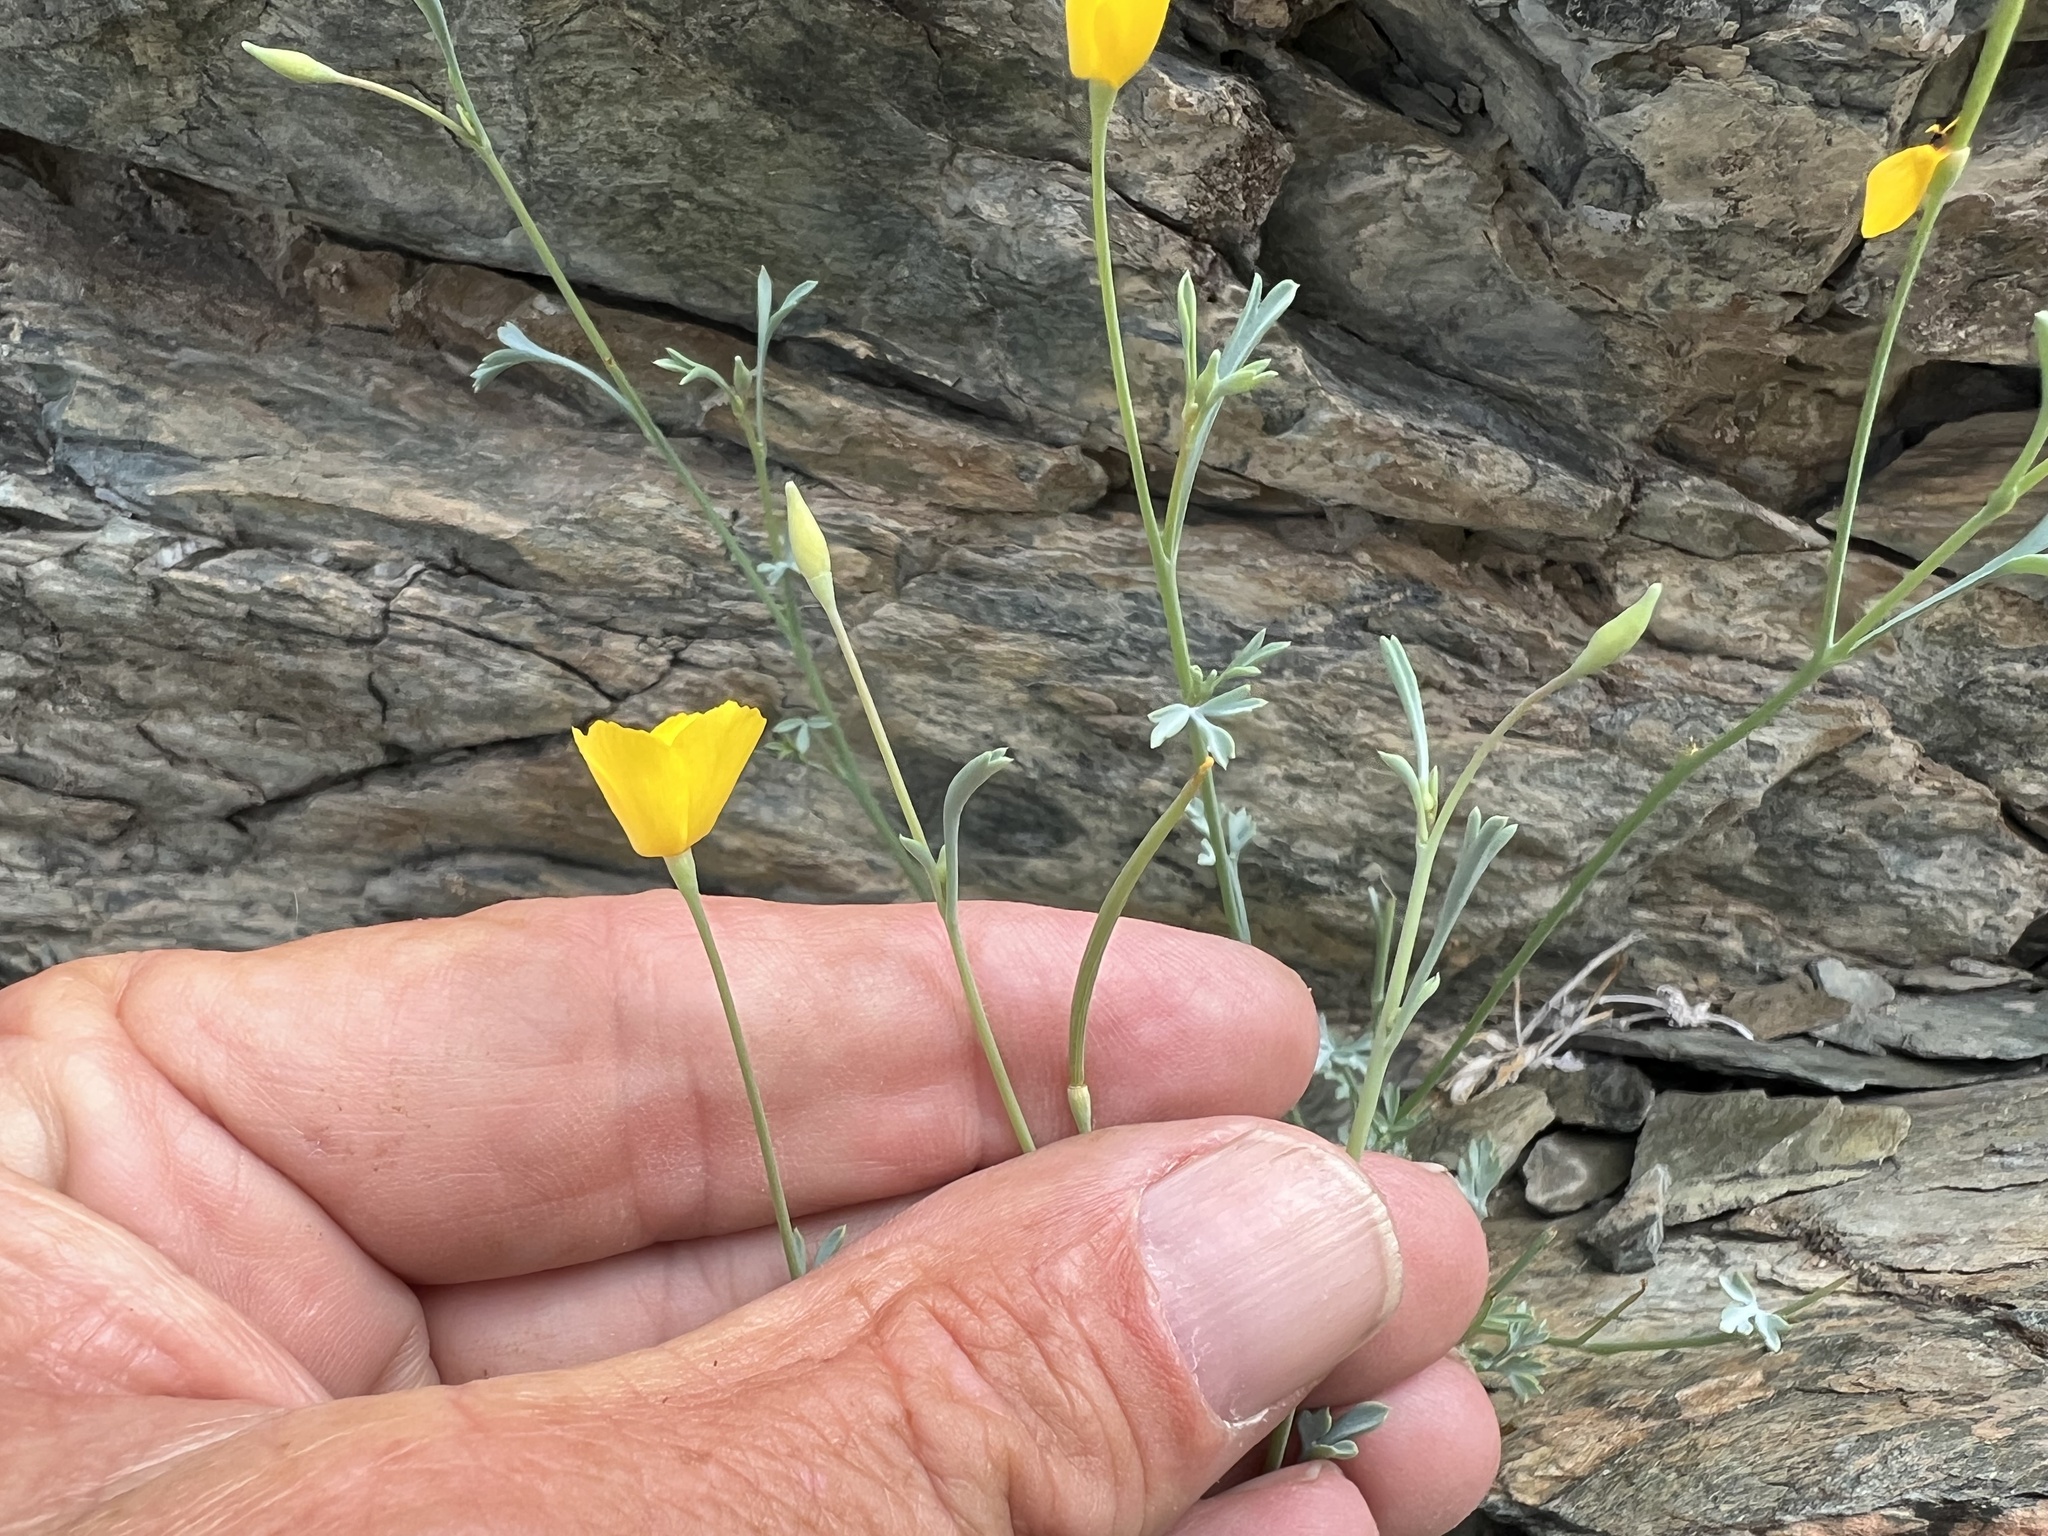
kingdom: Plantae
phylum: Tracheophyta
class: Magnoliopsida
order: Ranunculales
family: Papaveraceae
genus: Eschscholzia
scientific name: Eschscholzia minutiflora
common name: Small-flower california-poppy
